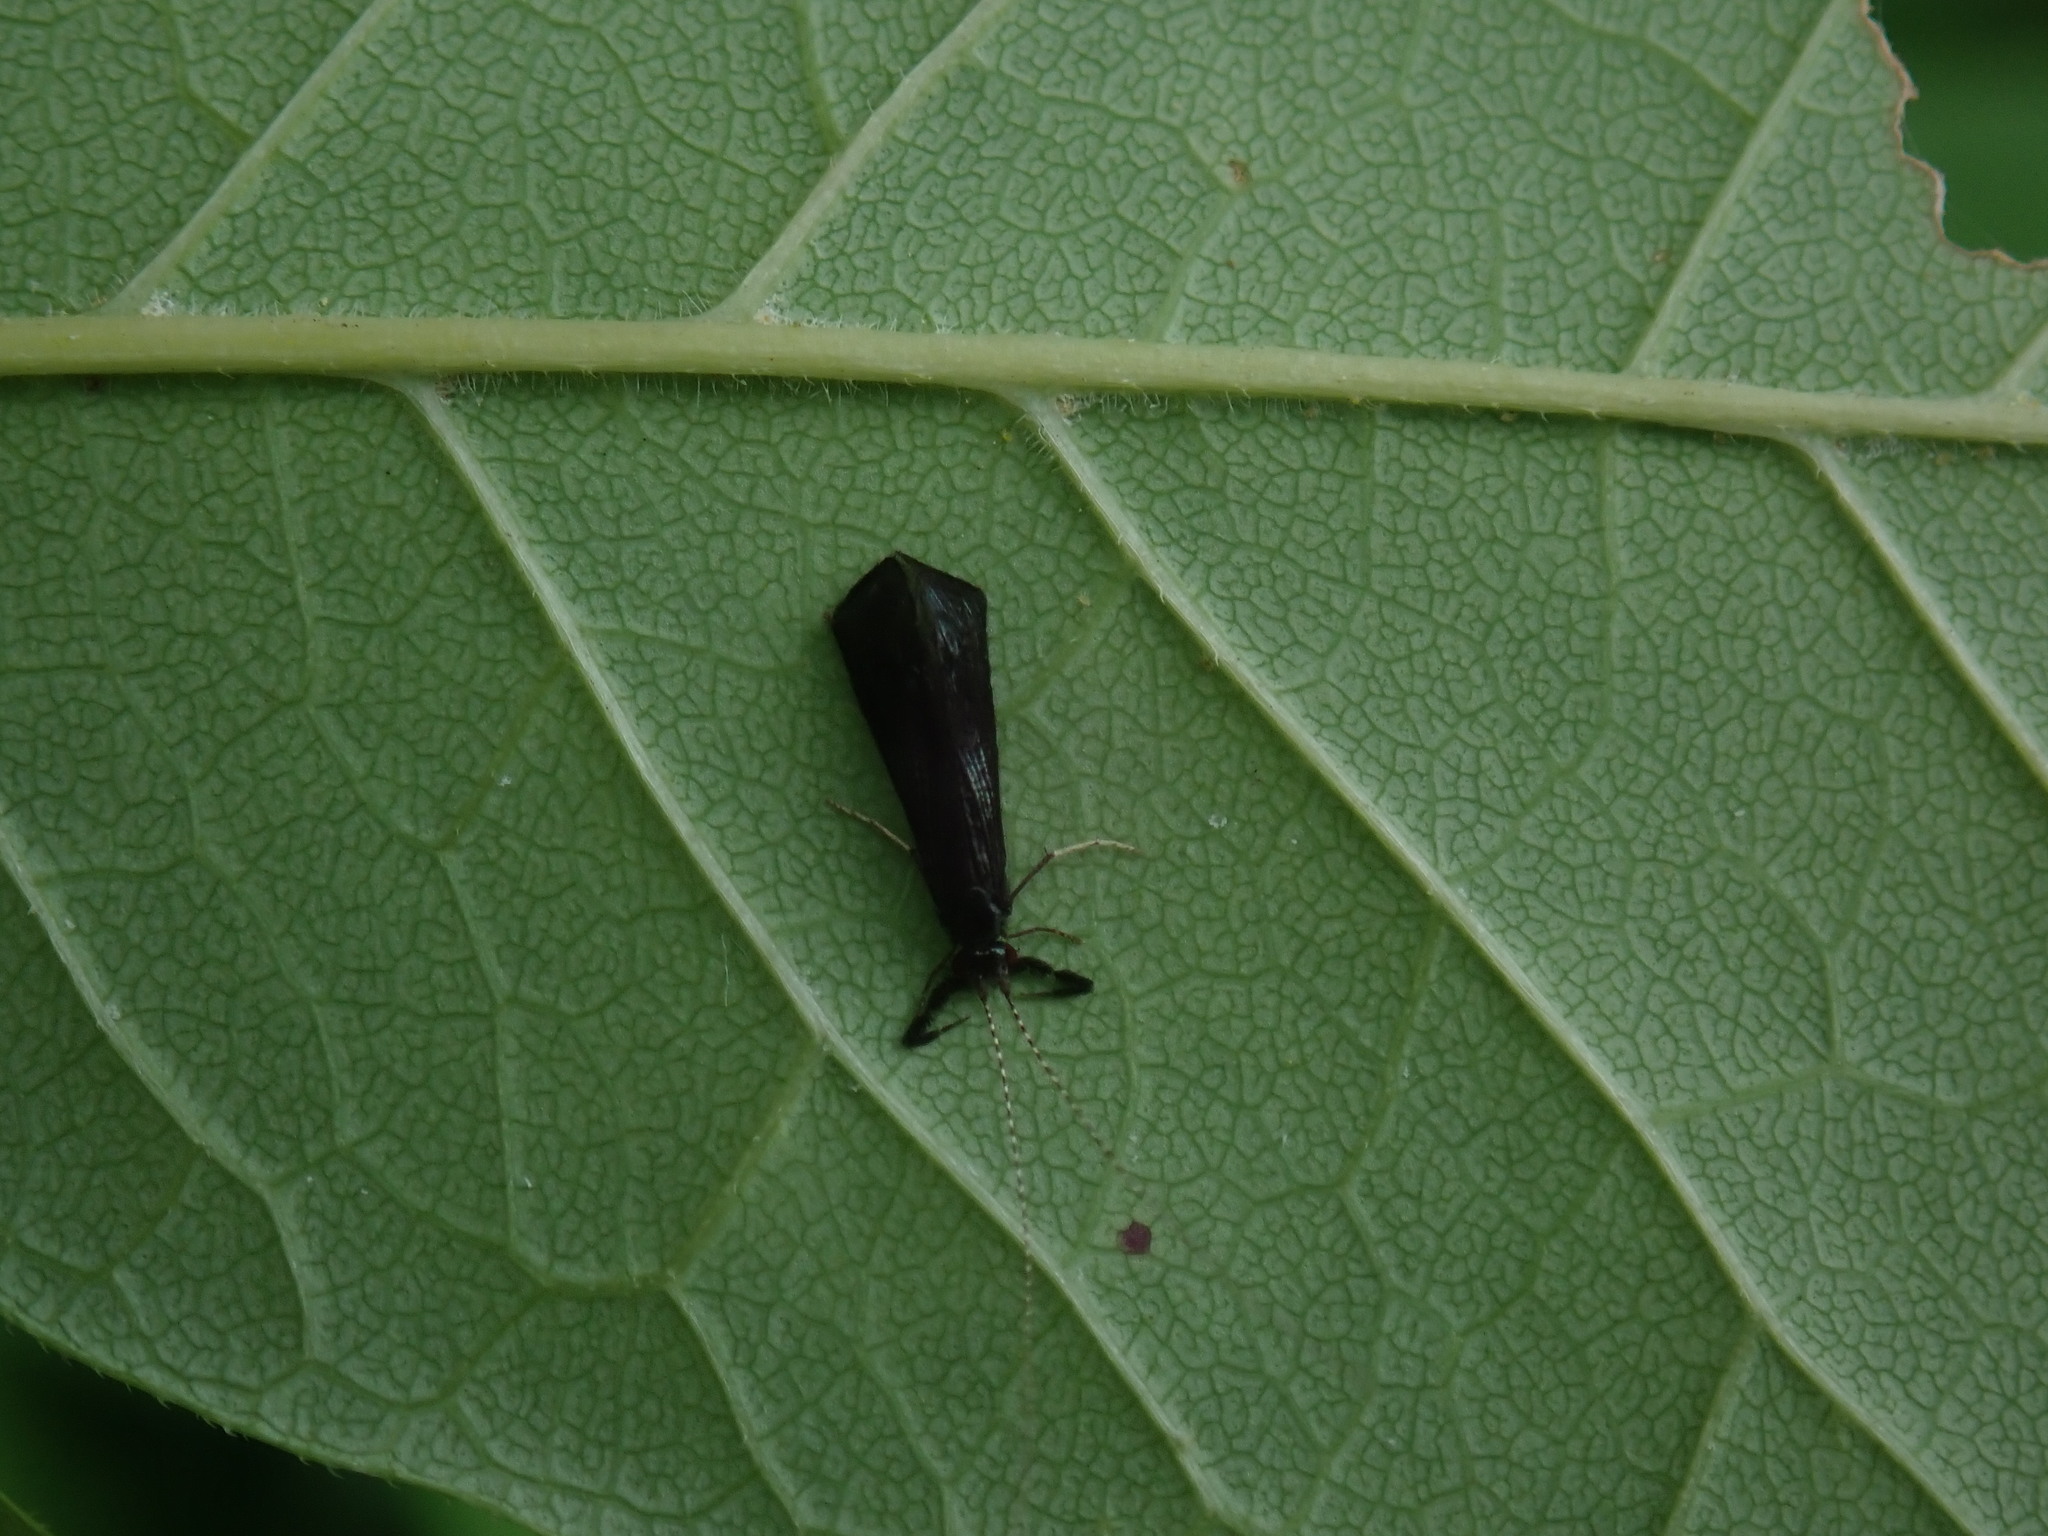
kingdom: Animalia
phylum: Arthropoda
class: Insecta
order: Trichoptera
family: Leptoceridae
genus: Mystacides
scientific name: Mystacides sepulchralis
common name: Black dancer caddisfly
